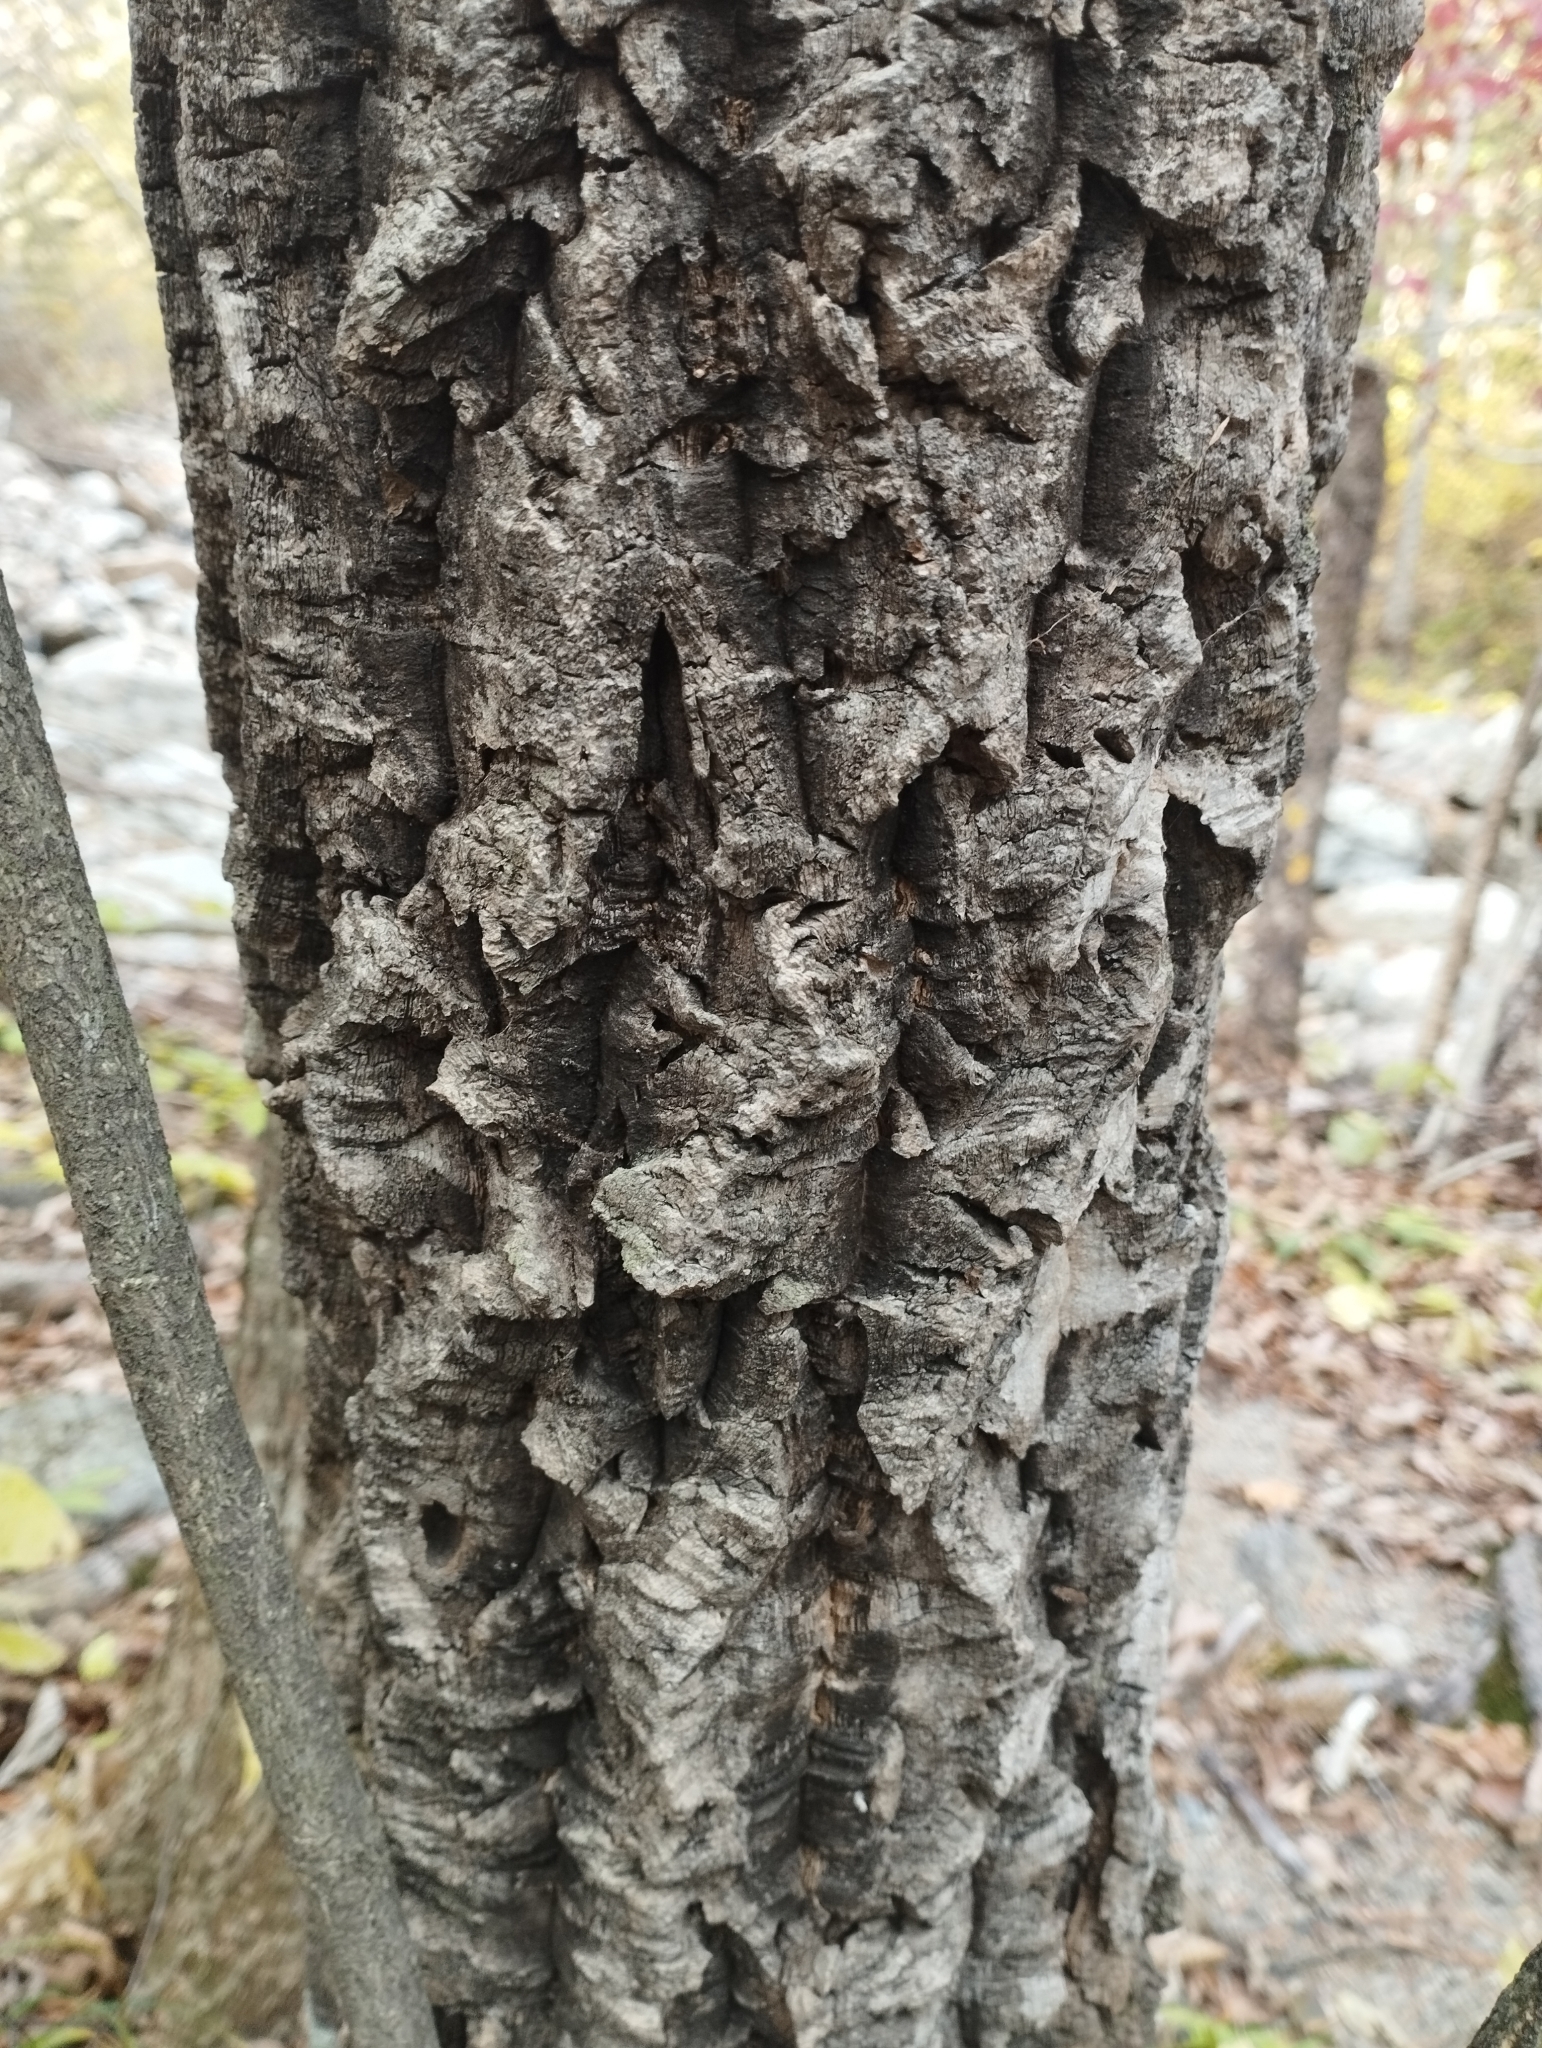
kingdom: Plantae
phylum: Tracheophyta
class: Magnoliopsida
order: Sapindales
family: Rutaceae
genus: Phellodendron
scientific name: Phellodendron amurense
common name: Amur corktree
